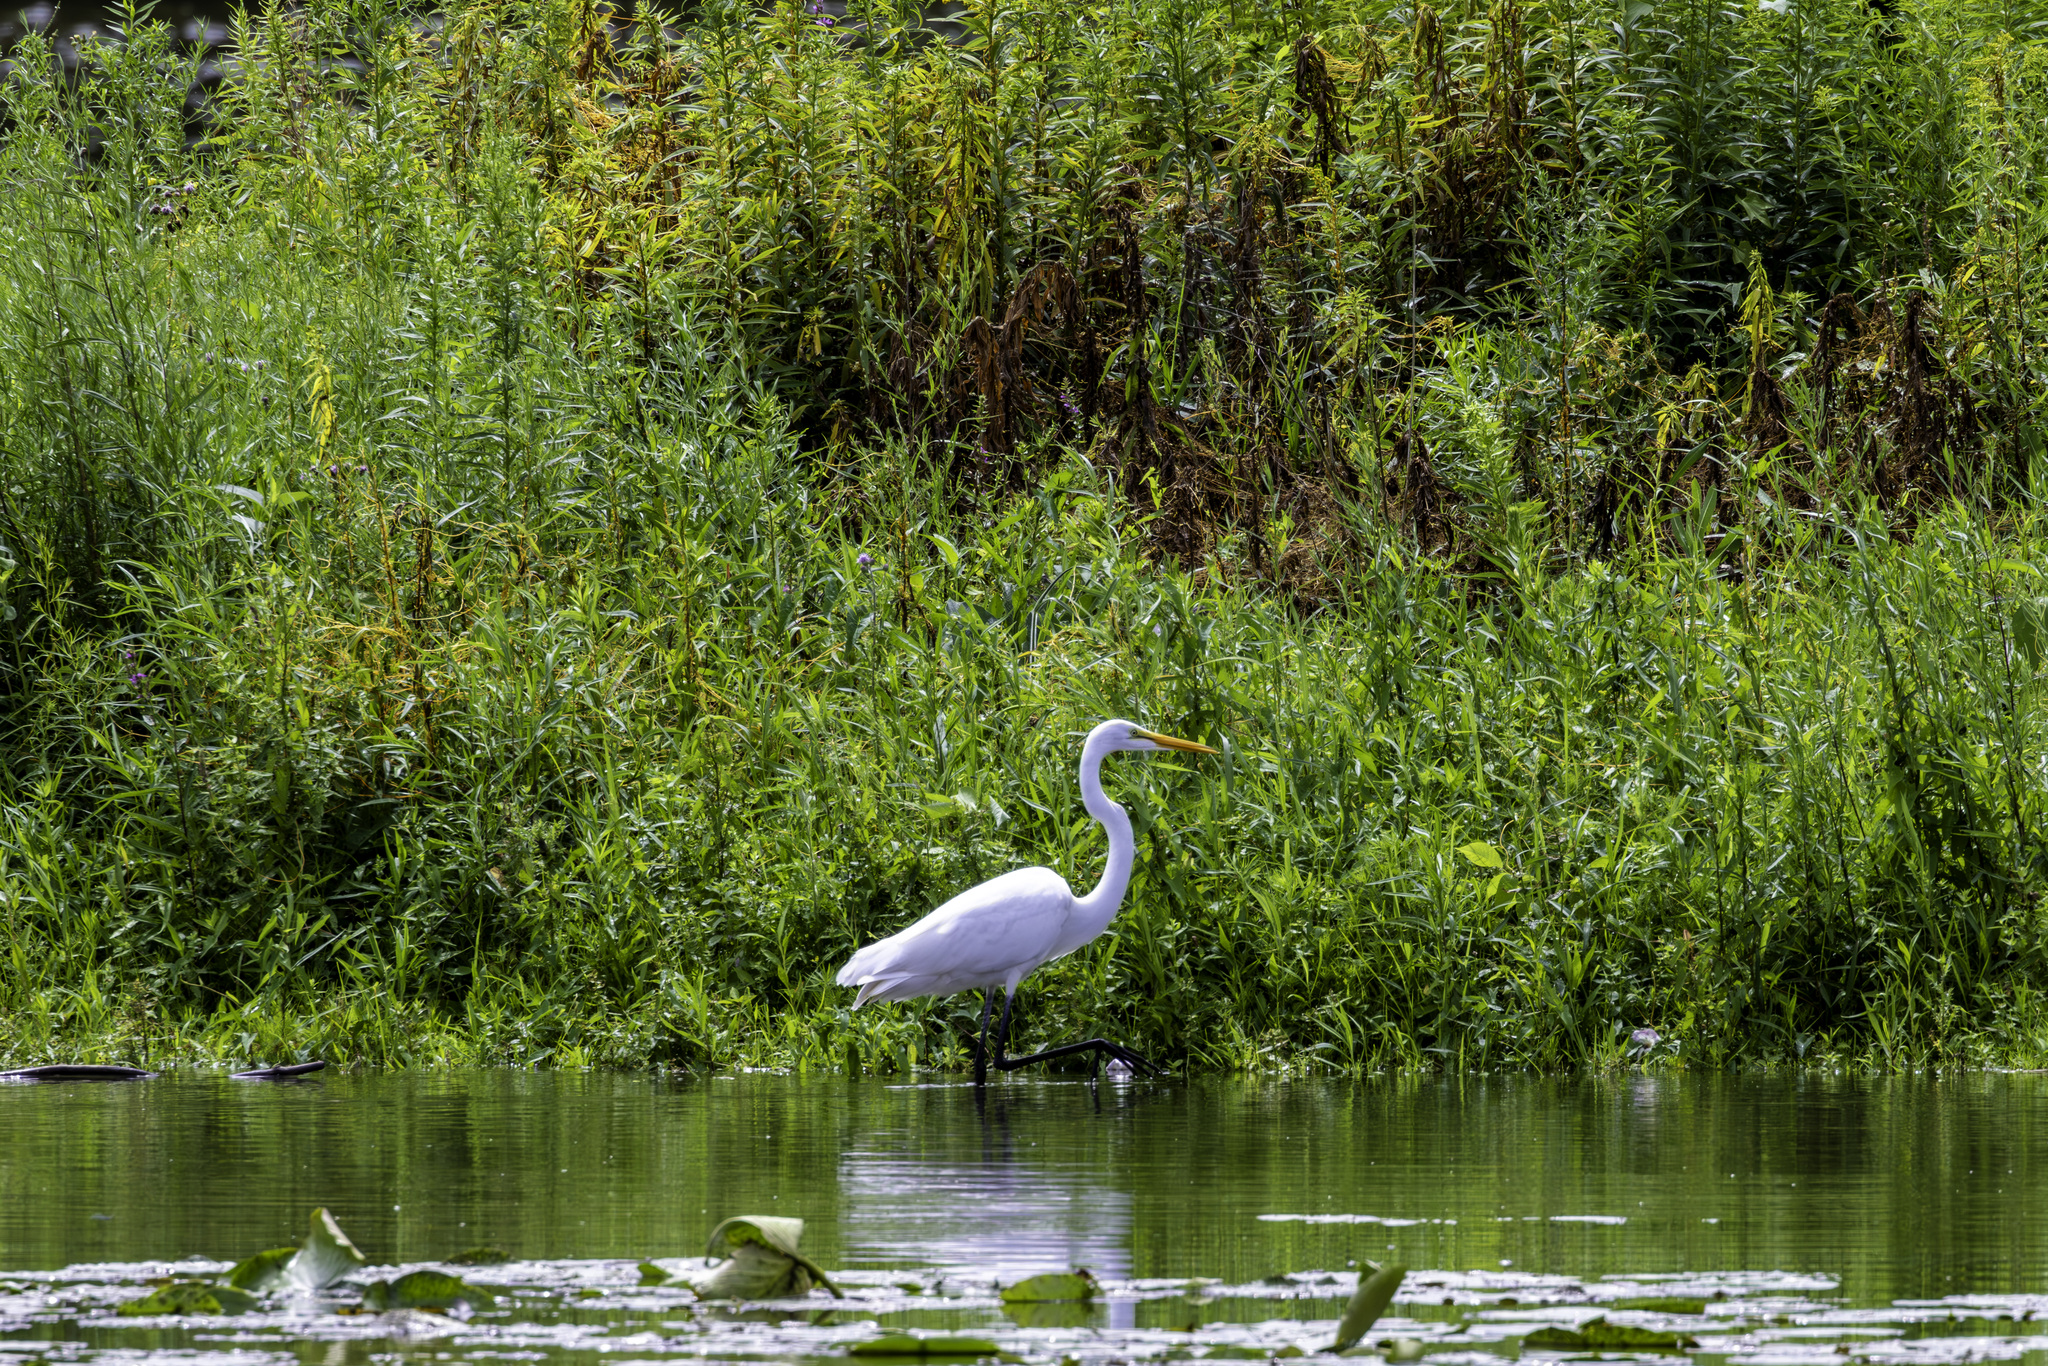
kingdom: Animalia
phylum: Chordata
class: Aves
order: Pelecaniformes
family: Ardeidae
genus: Ardea
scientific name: Ardea alba
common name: Great egret
